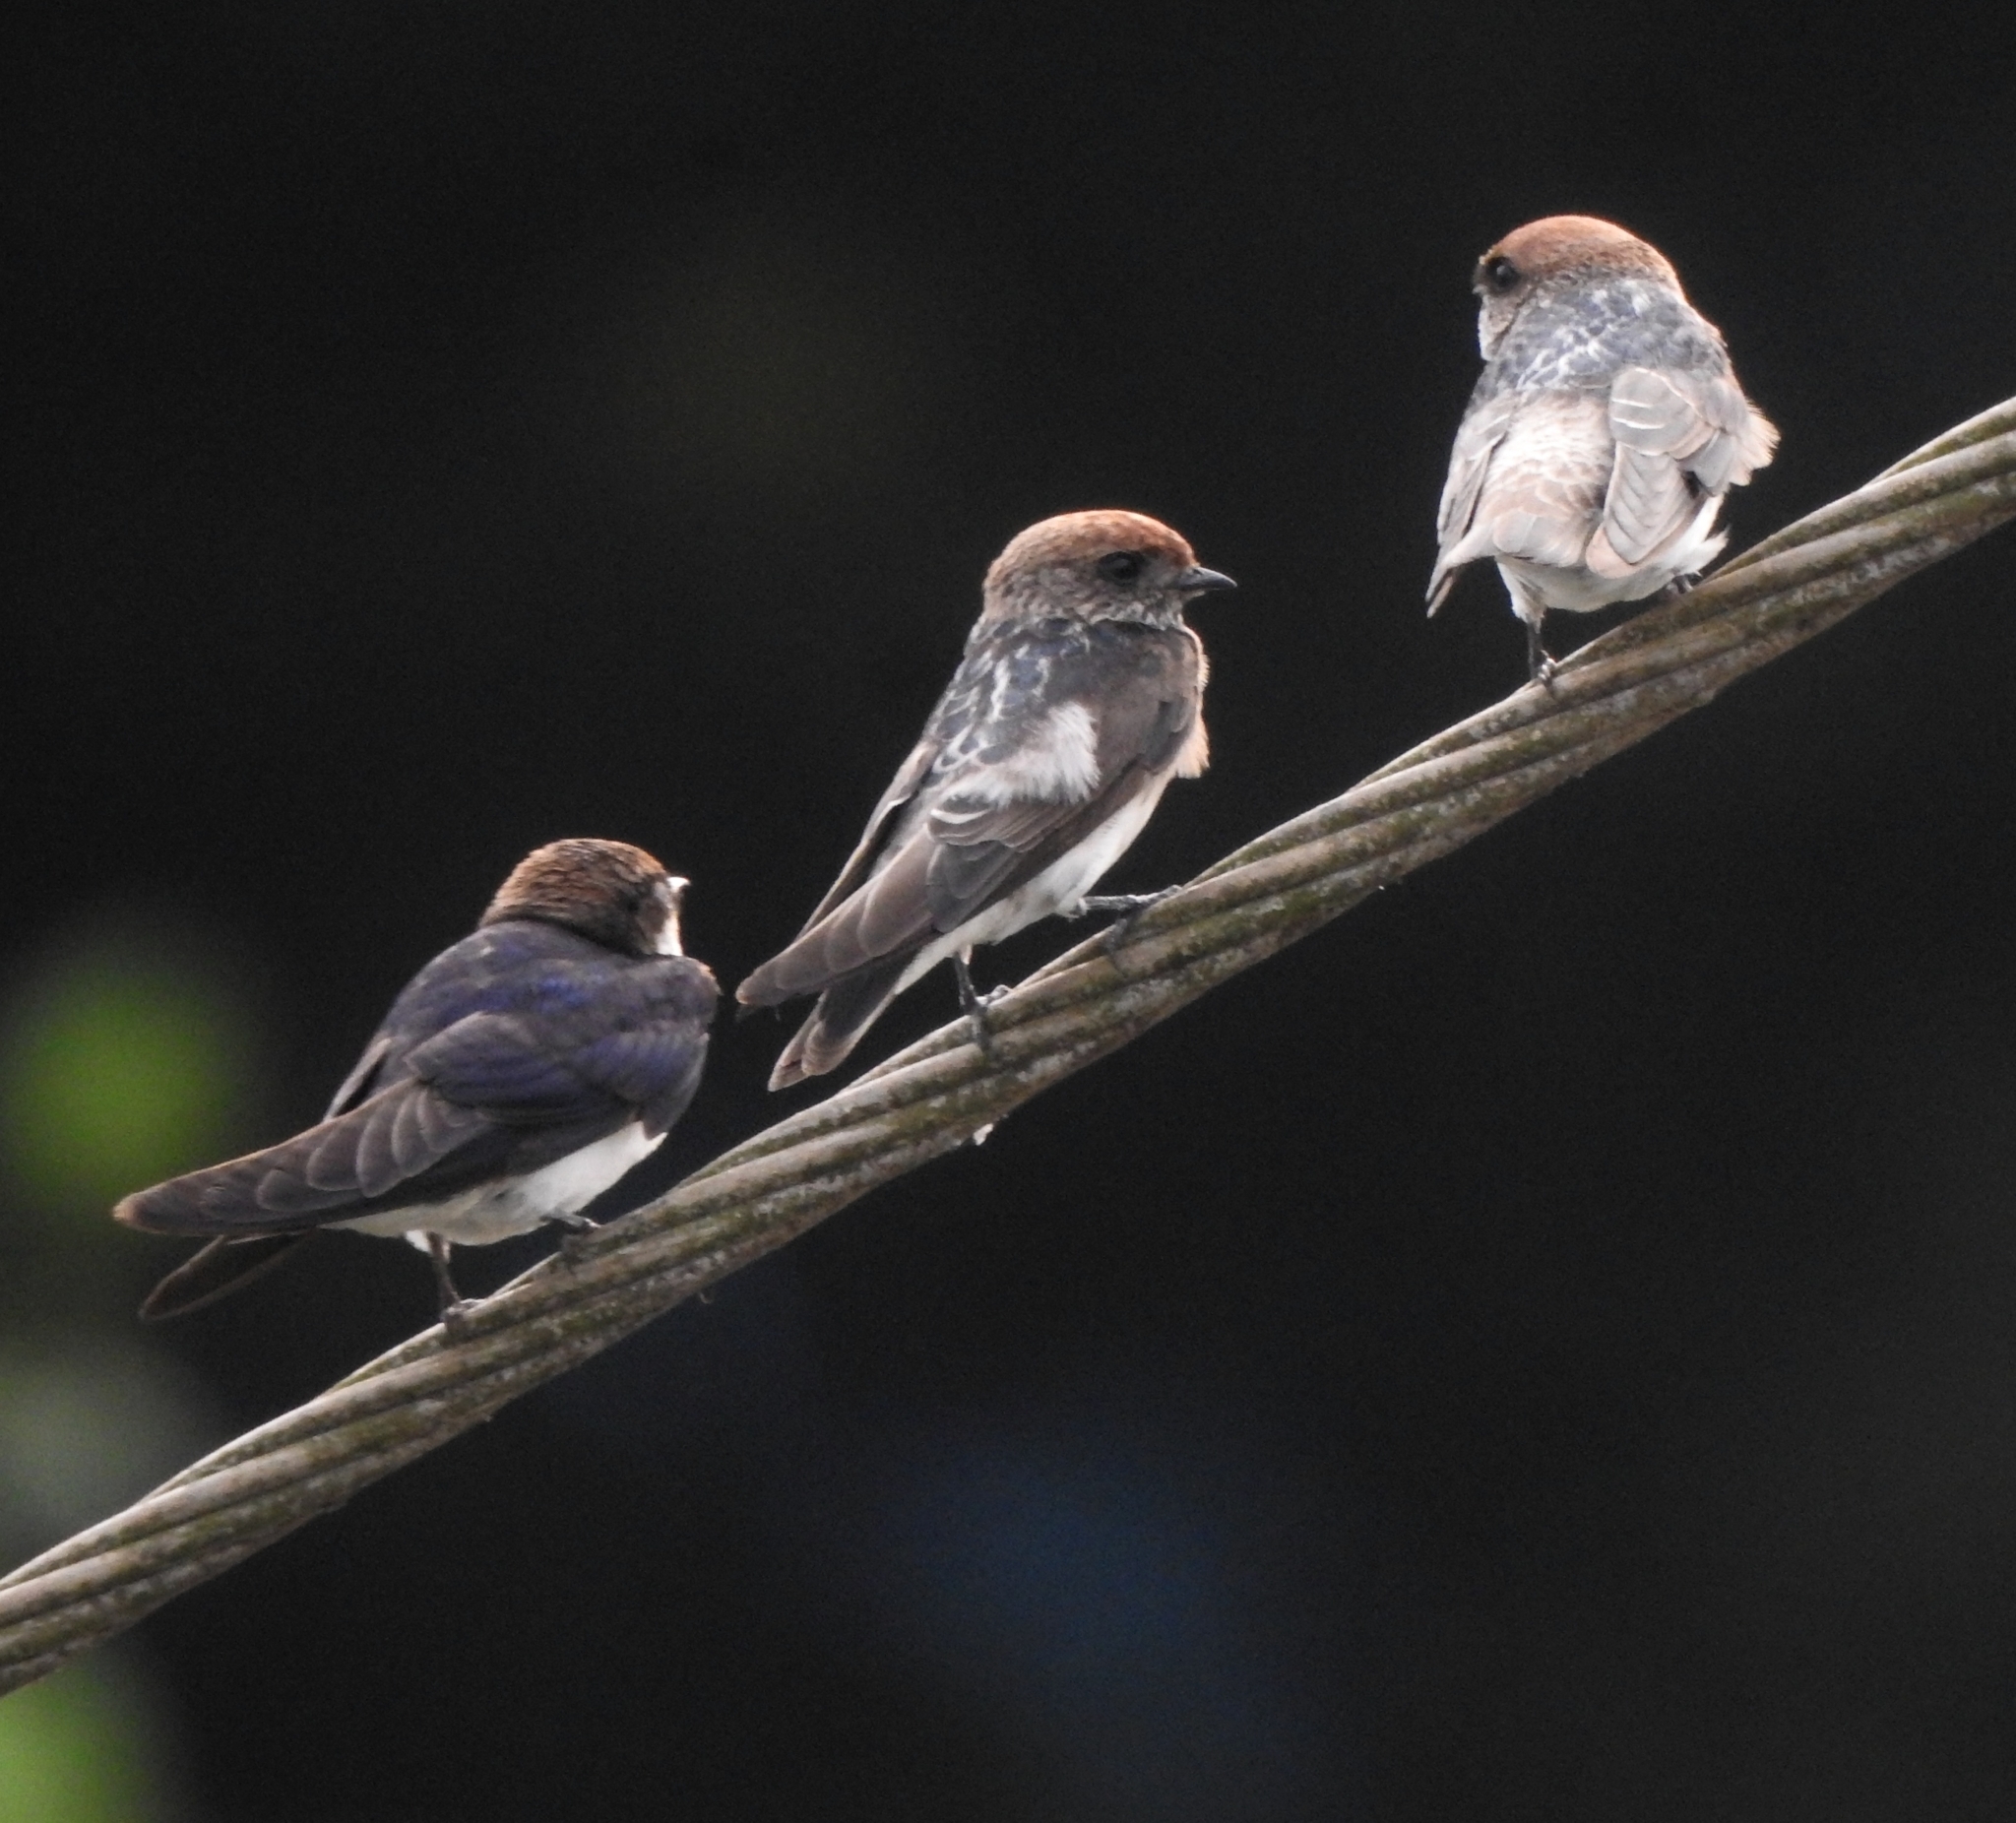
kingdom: Animalia
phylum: Chordata
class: Aves
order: Passeriformes
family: Hirundinidae
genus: Petrochelidon
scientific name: Petrochelidon fluvicola
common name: Streak-throated swallow
